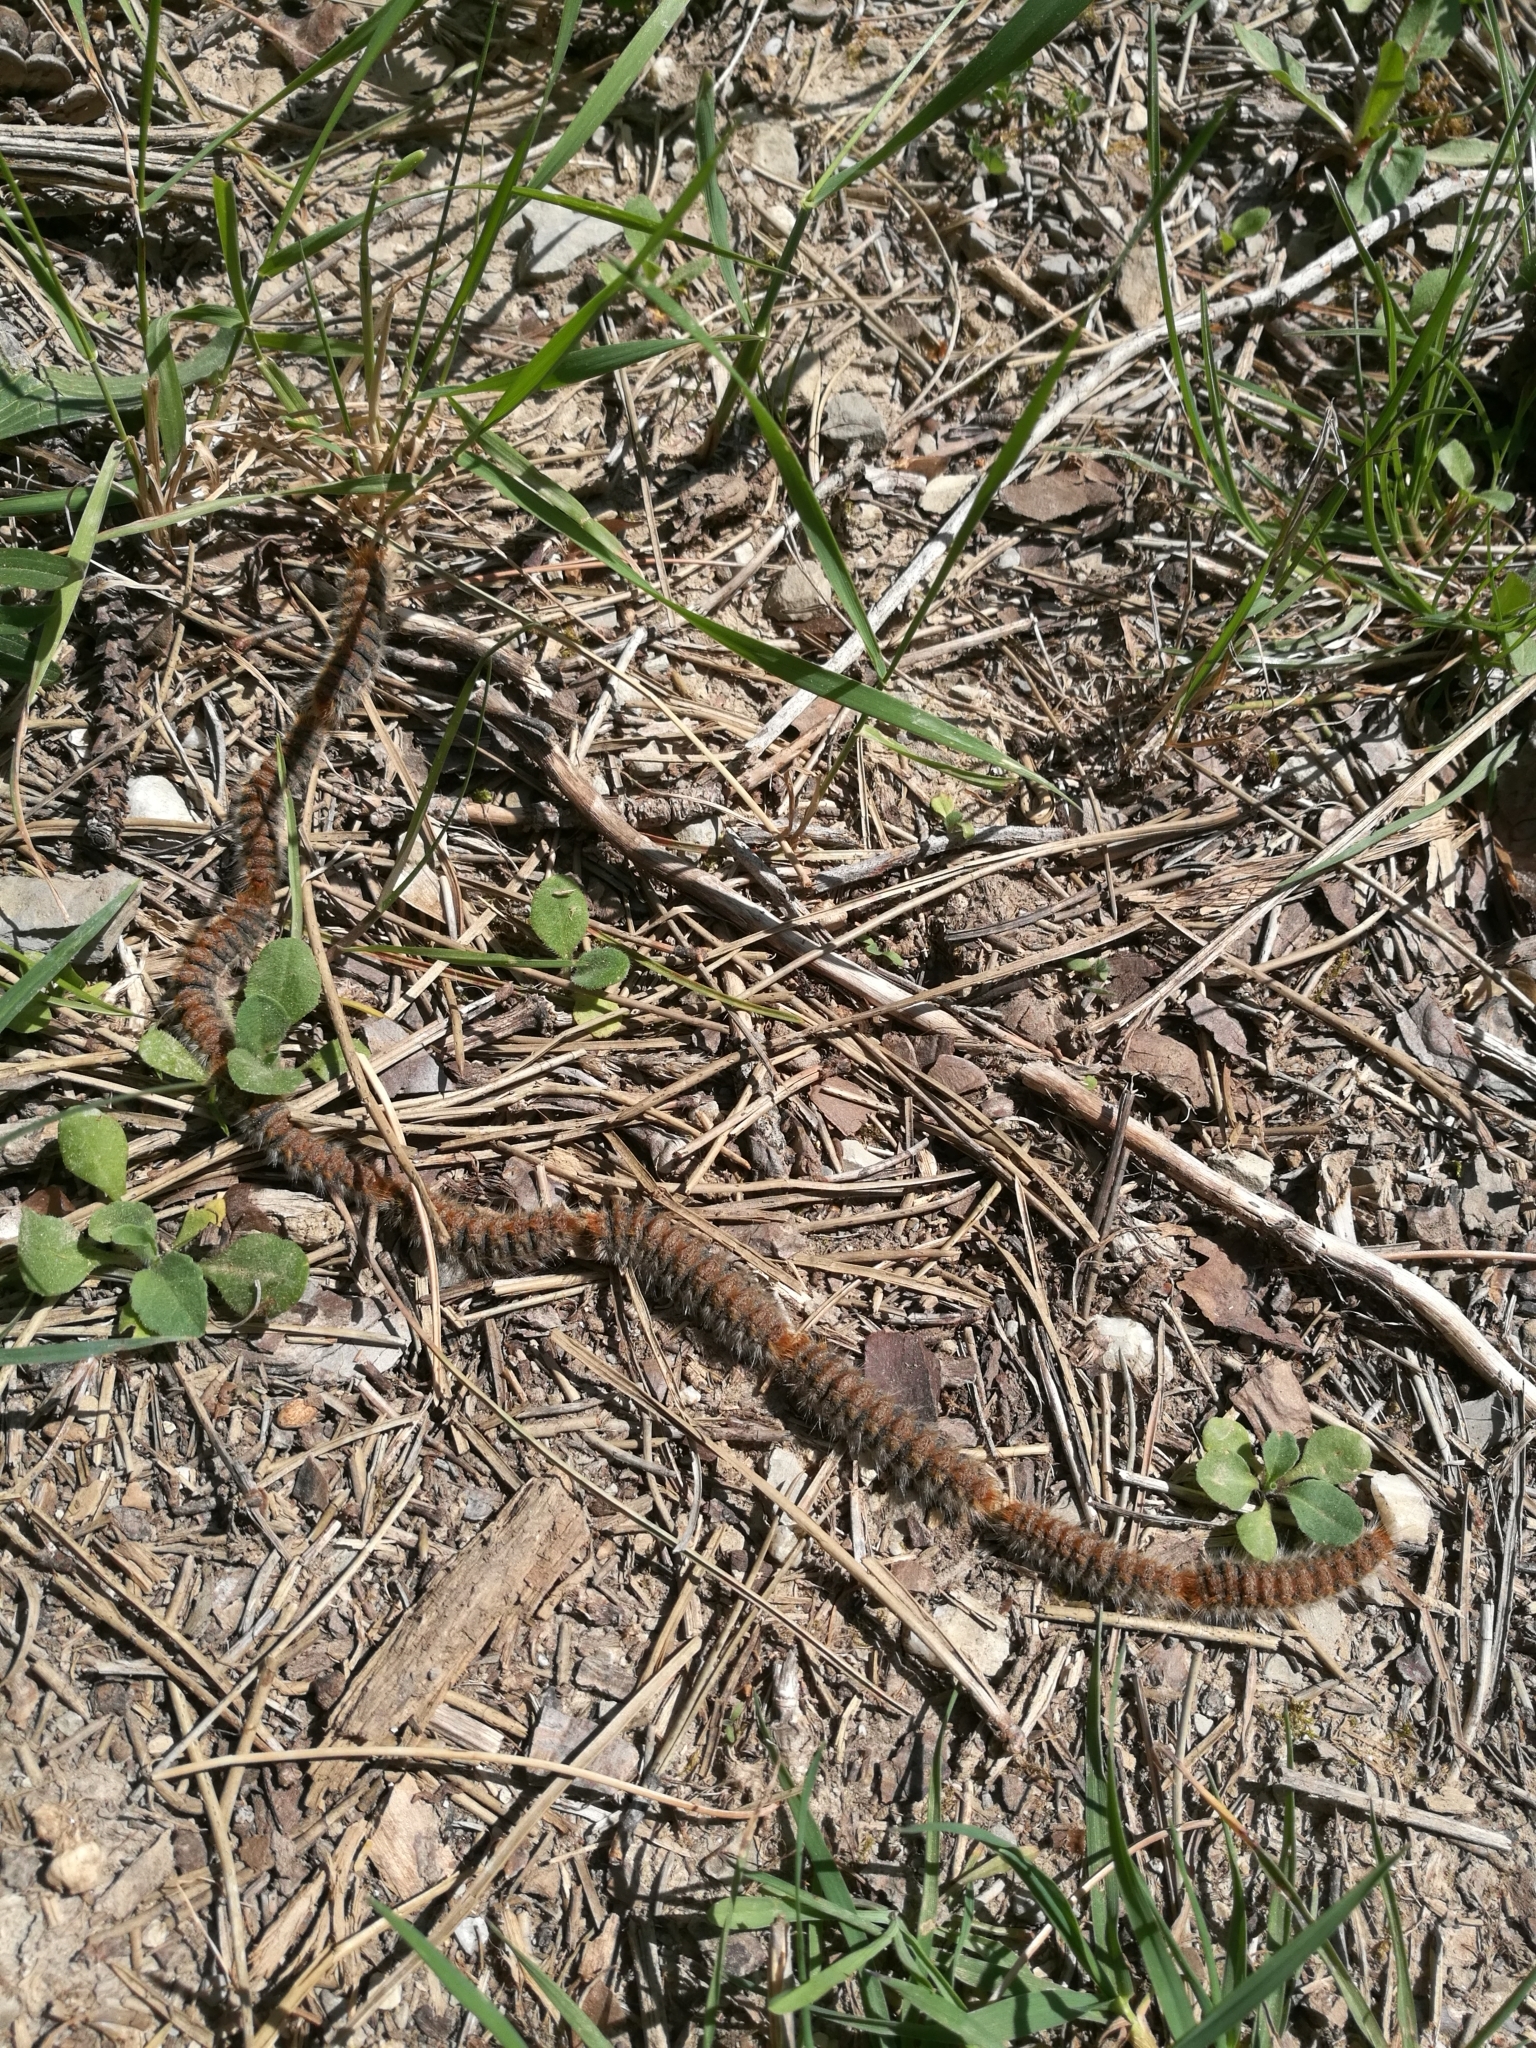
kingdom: Animalia
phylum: Arthropoda
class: Insecta
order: Lepidoptera
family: Notodontidae
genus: Thaumetopoea
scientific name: Thaumetopoea pityocampa
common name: Pine processionary
